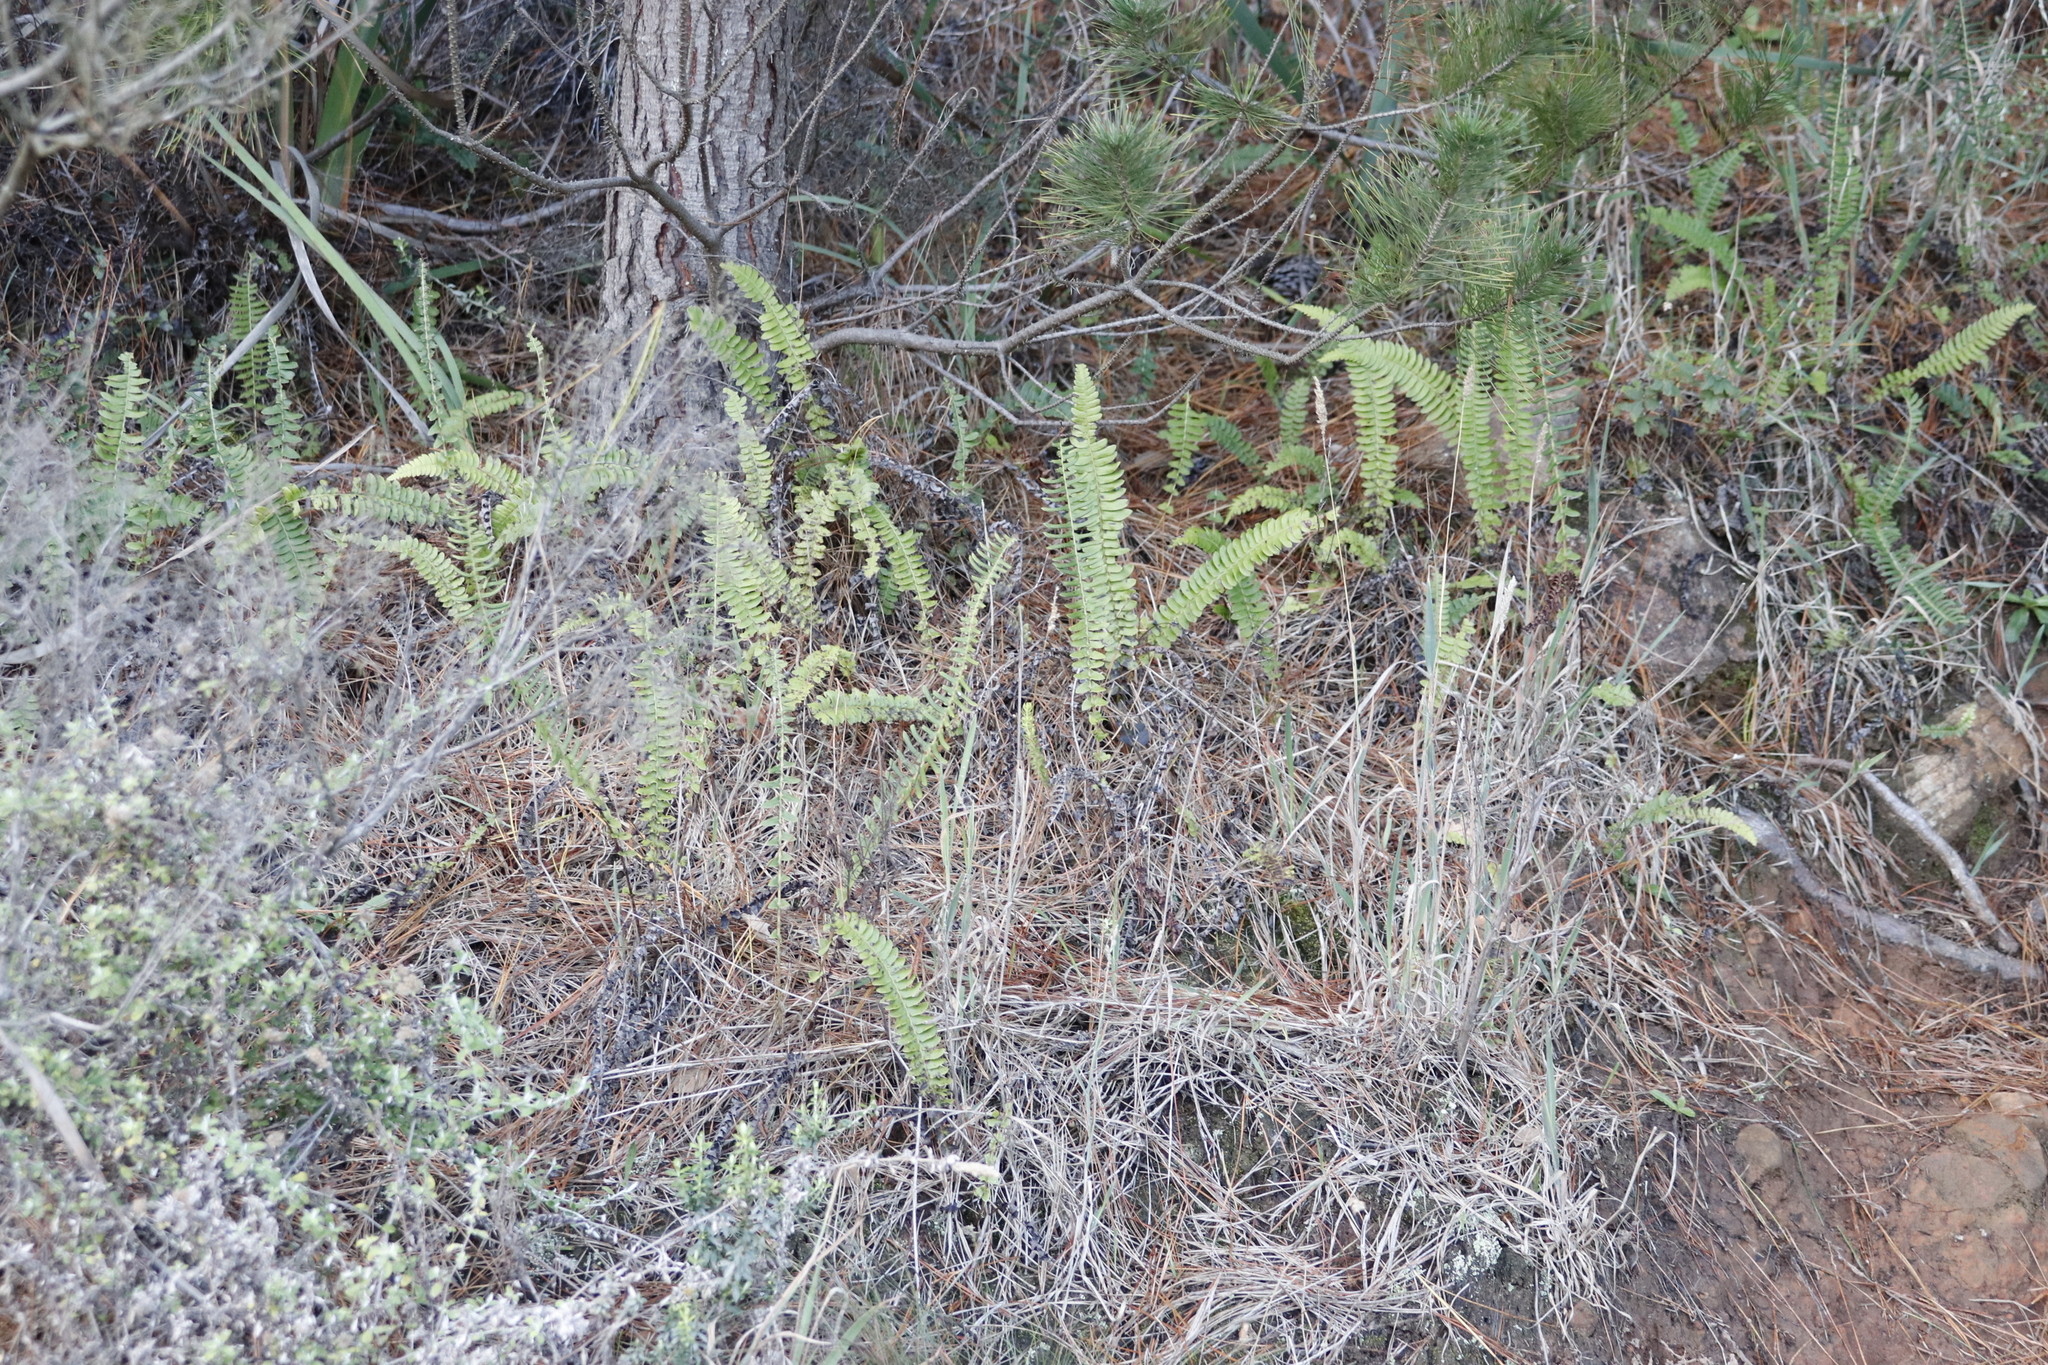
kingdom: Plantae
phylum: Tracheophyta
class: Polypodiopsida
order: Polypodiales
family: Blechnaceae
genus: Blechnum
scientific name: Blechnum australe
